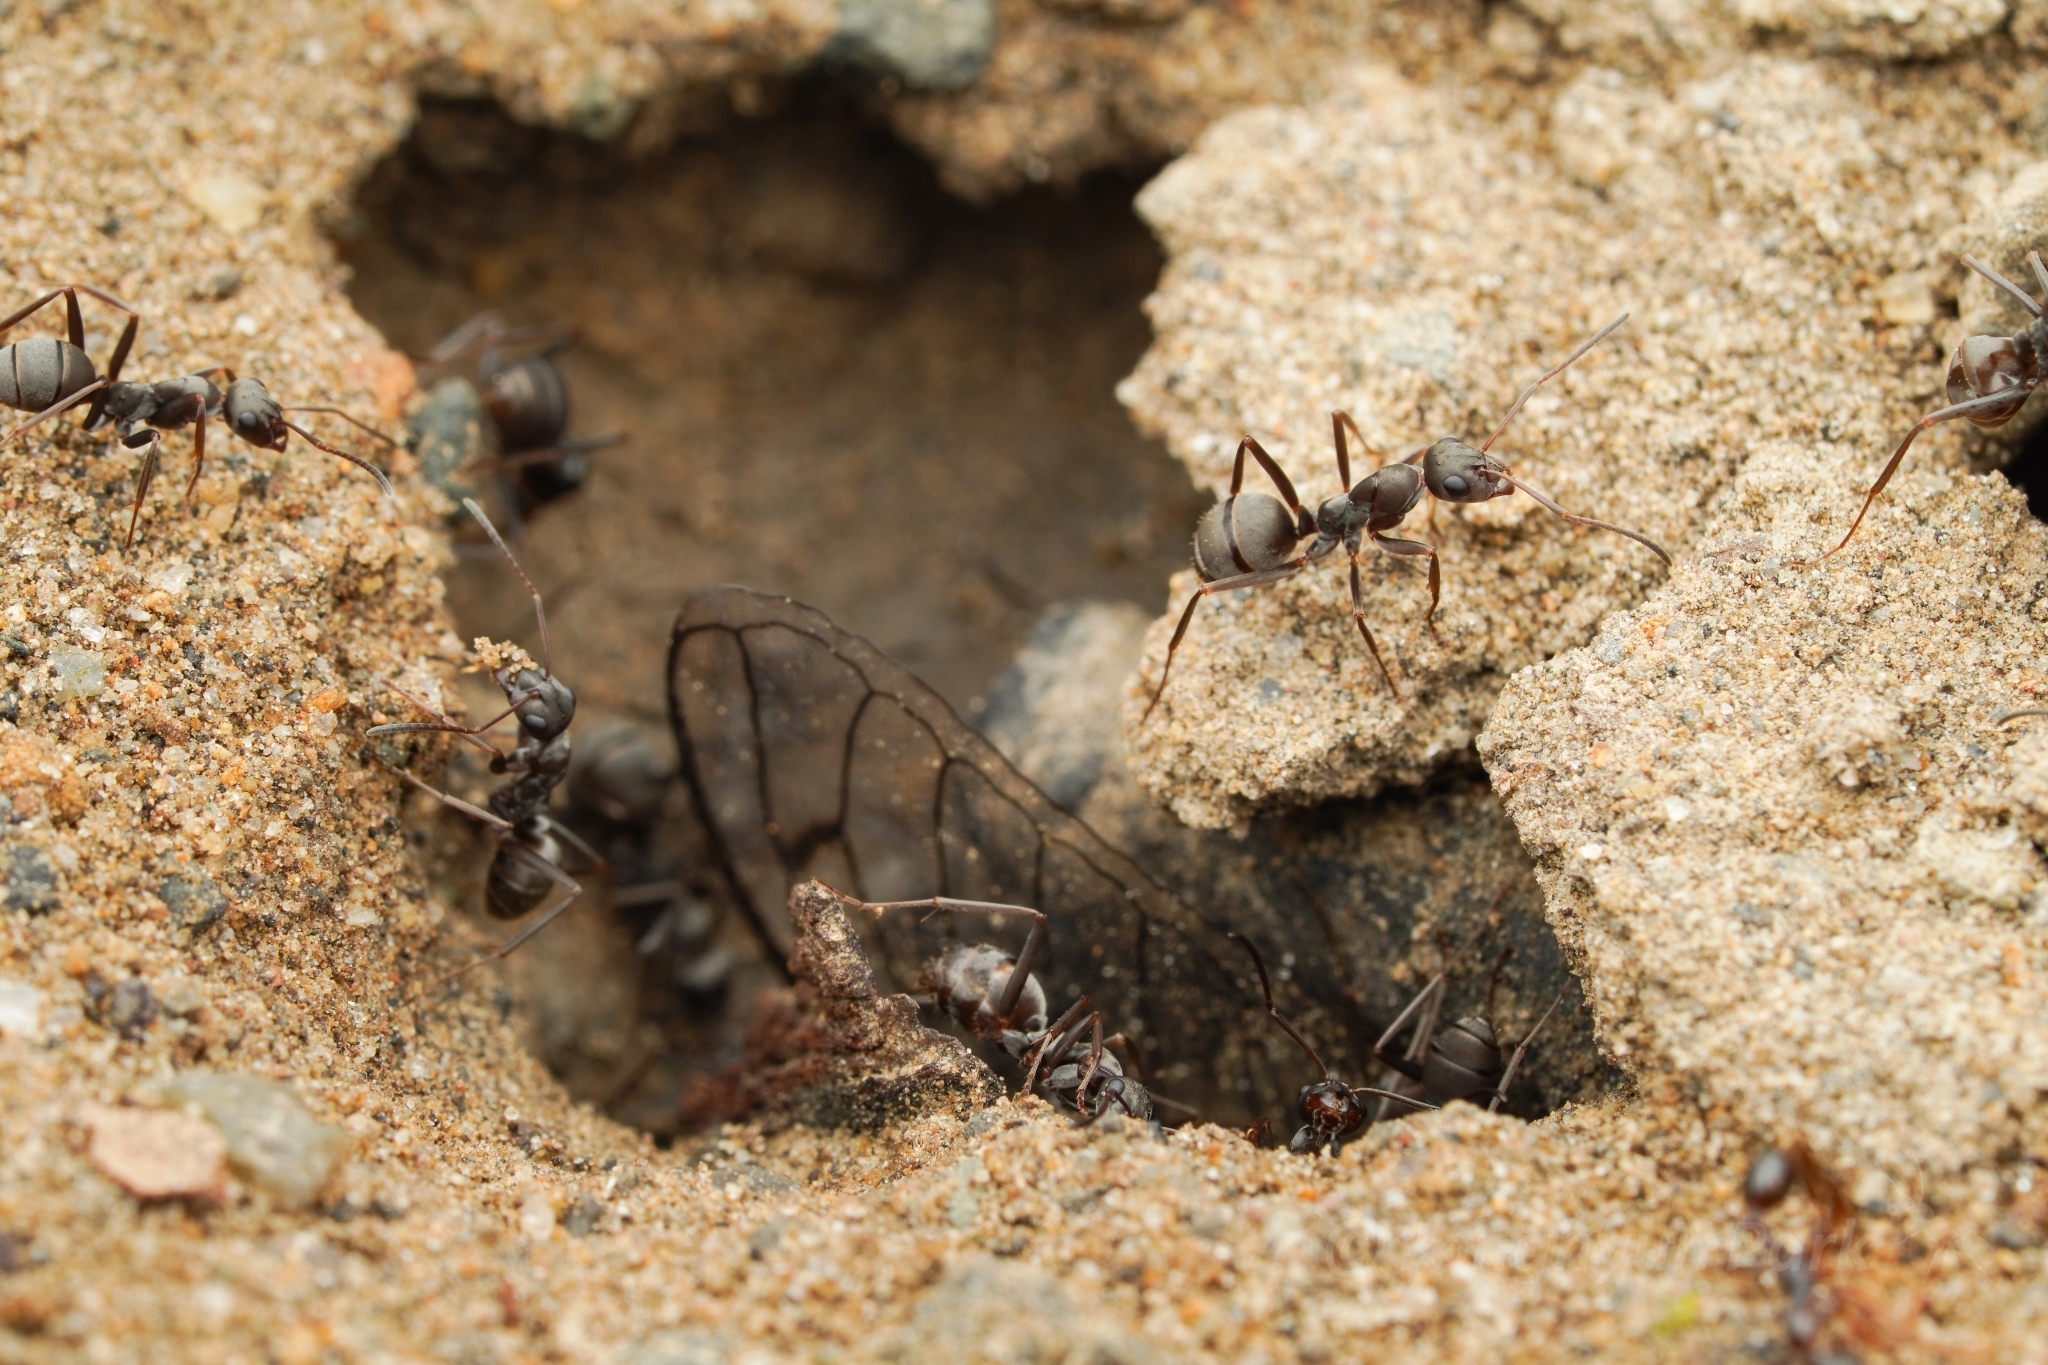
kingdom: Animalia
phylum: Arthropoda
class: Insecta
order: Hymenoptera
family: Formicidae
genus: Formica
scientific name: Formica japonica
